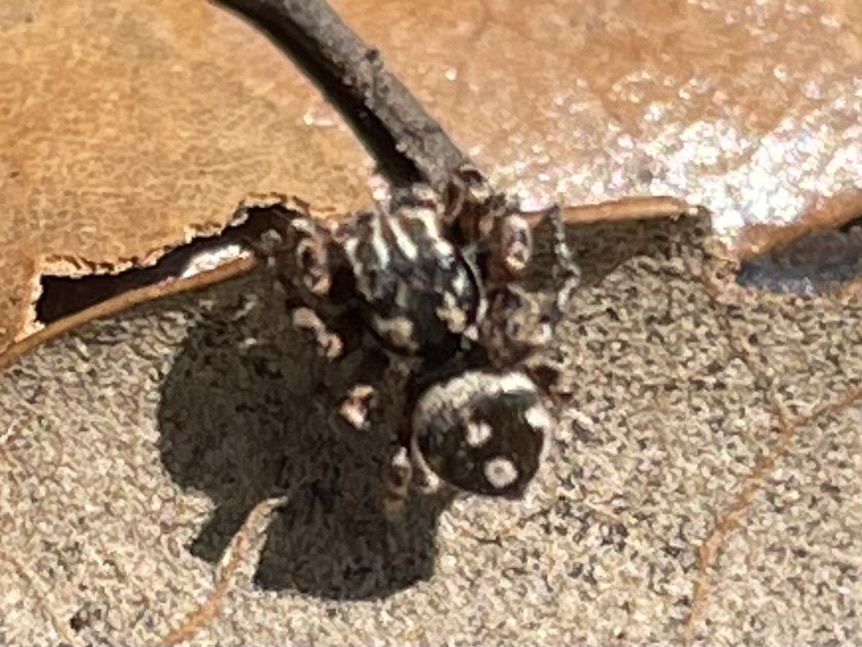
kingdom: Animalia
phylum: Arthropoda
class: Arachnida
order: Araneae
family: Salticidae
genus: Habronattus
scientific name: Habronattus fallax
